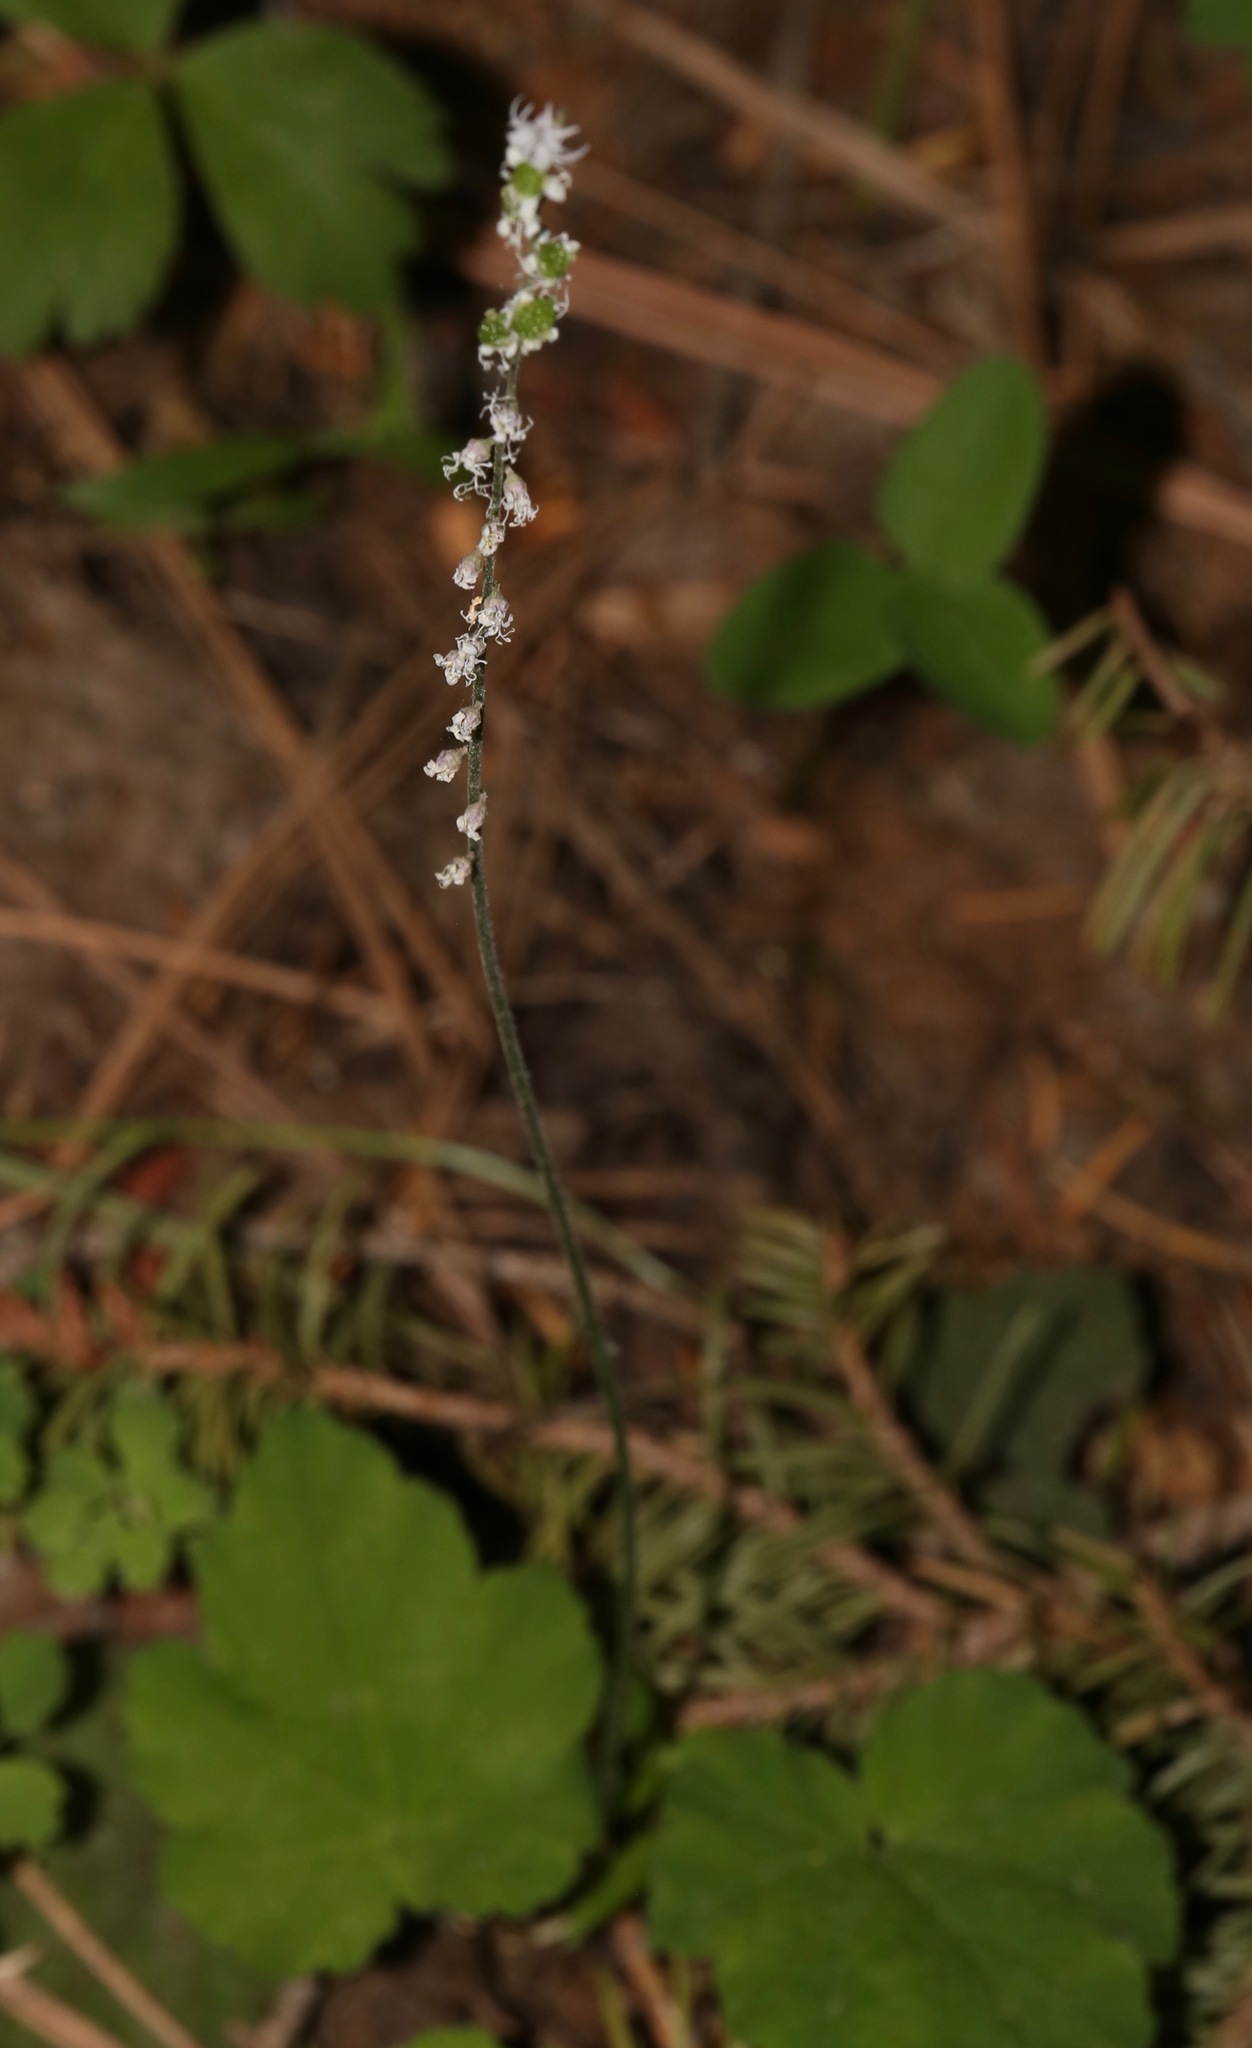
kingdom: Plantae
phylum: Tracheophyta
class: Magnoliopsida
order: Saxifragales
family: Saxifragaceae
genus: Ozomelis
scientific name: Ozomelis stauropetala
